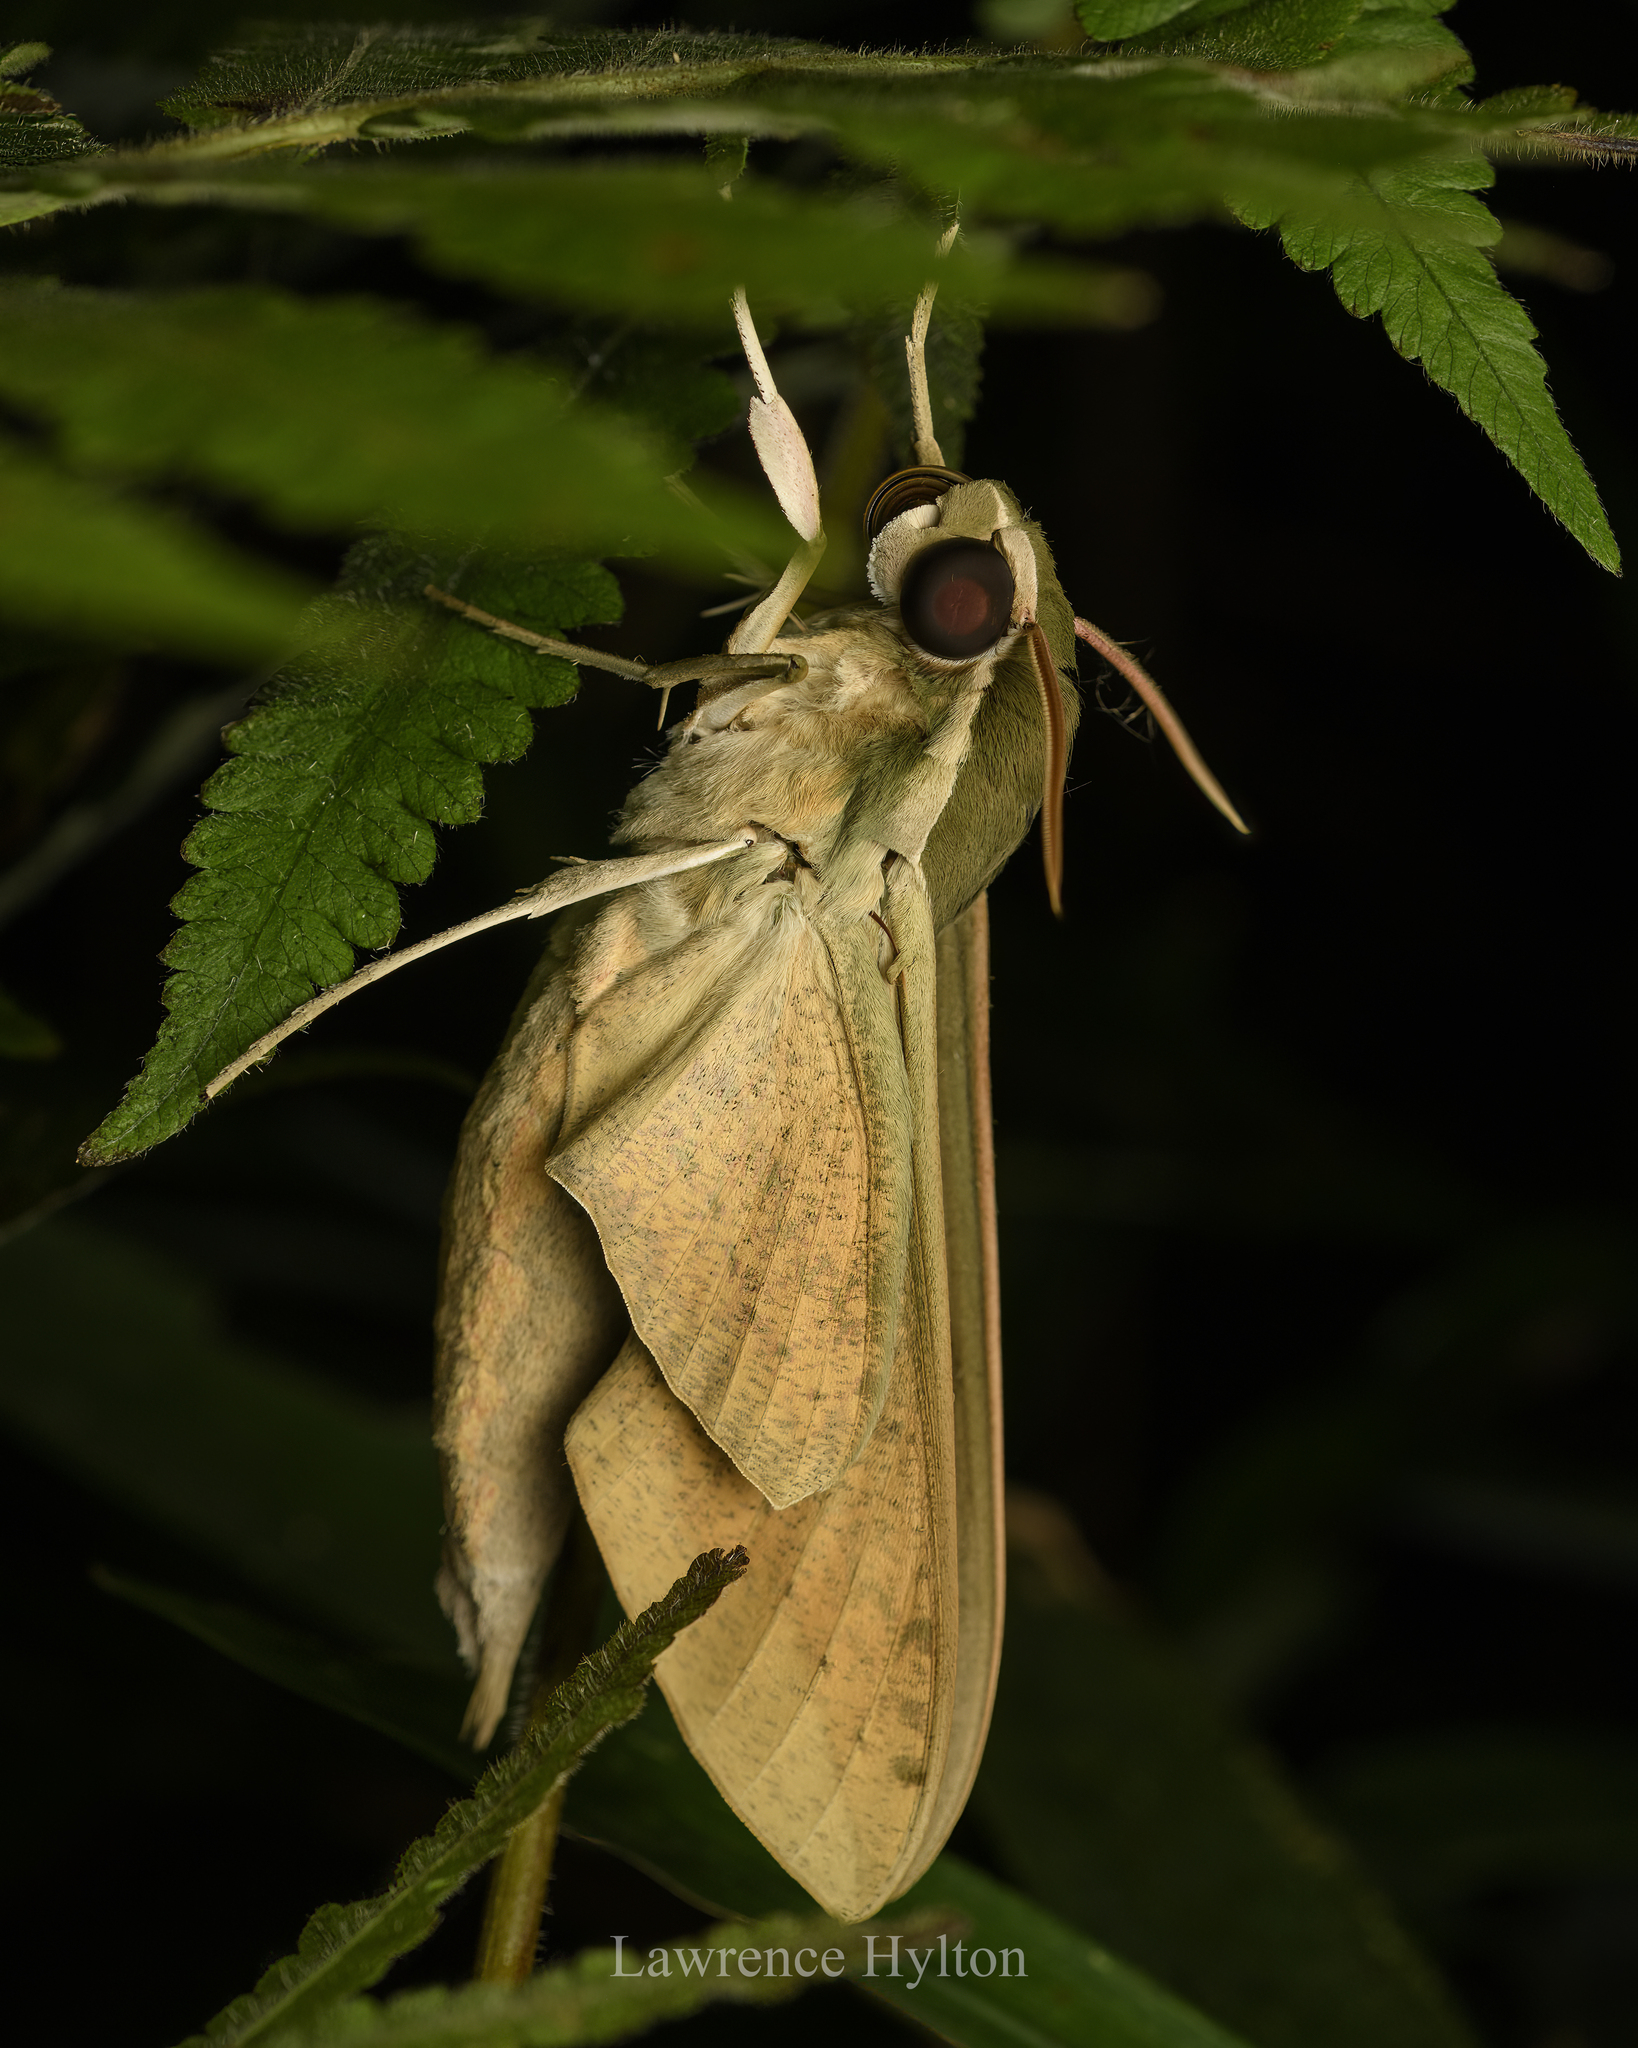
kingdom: Animalia
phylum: Arthropoda
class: Insecta
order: Lepidoptera
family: Sphingidae
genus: Theretra
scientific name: Theretra clotho
